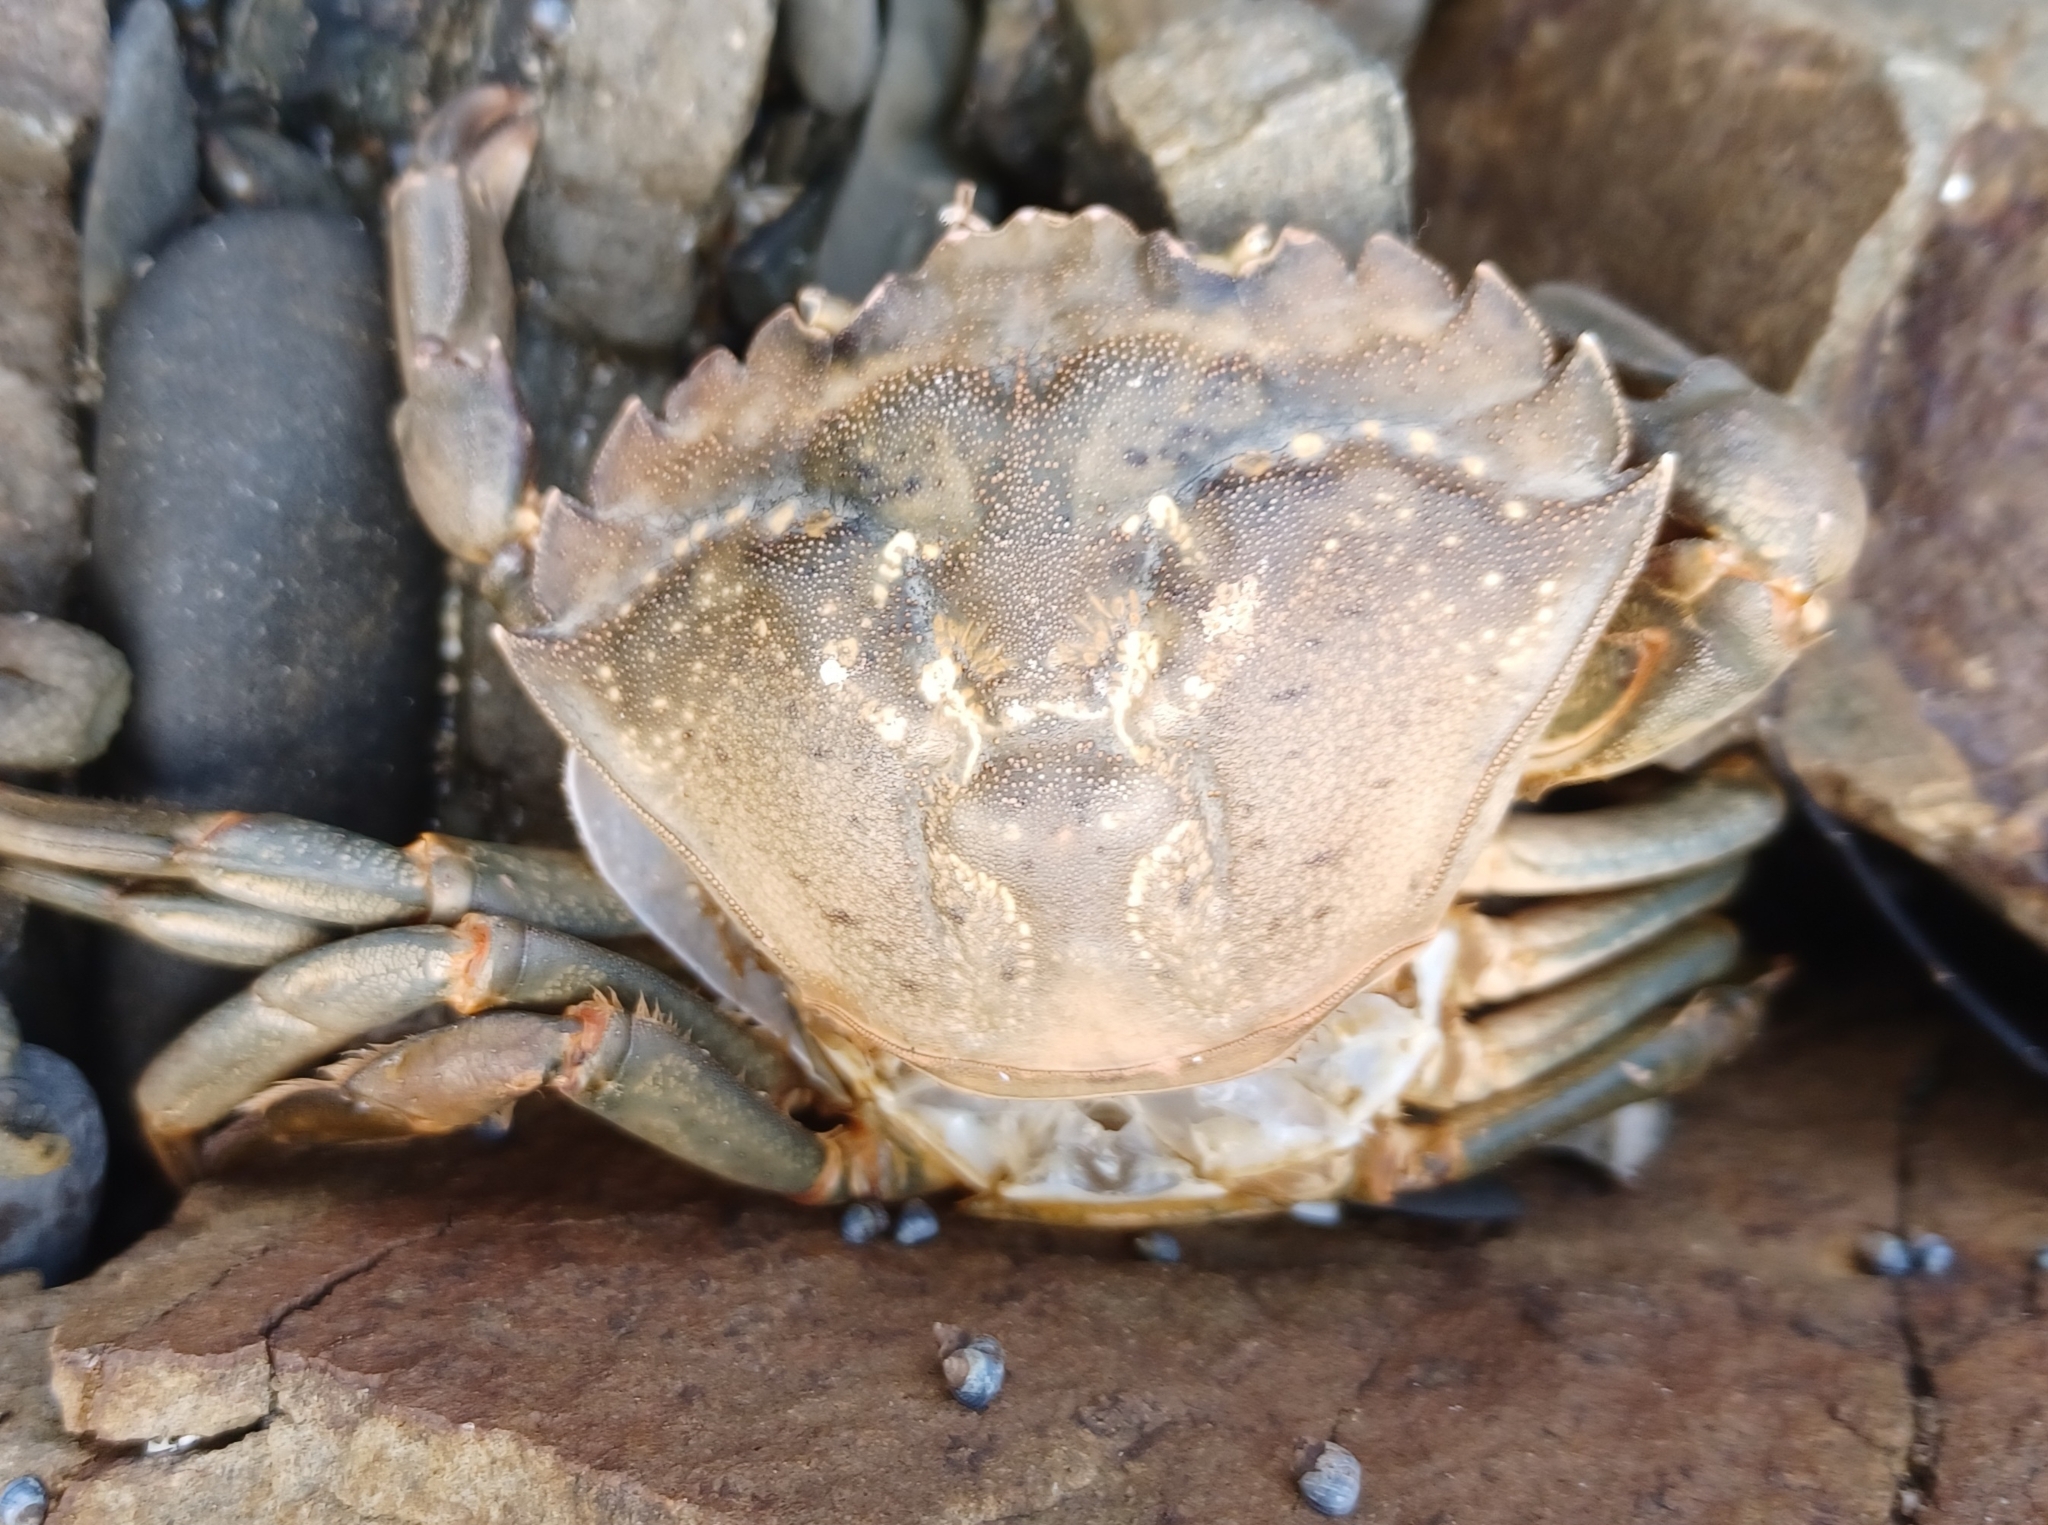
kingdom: Animalia
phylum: Arthropoda
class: Malacostraca
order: Decapoda
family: Carcinidae
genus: Carcinus
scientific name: Carcinus maenas
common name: European green crab
